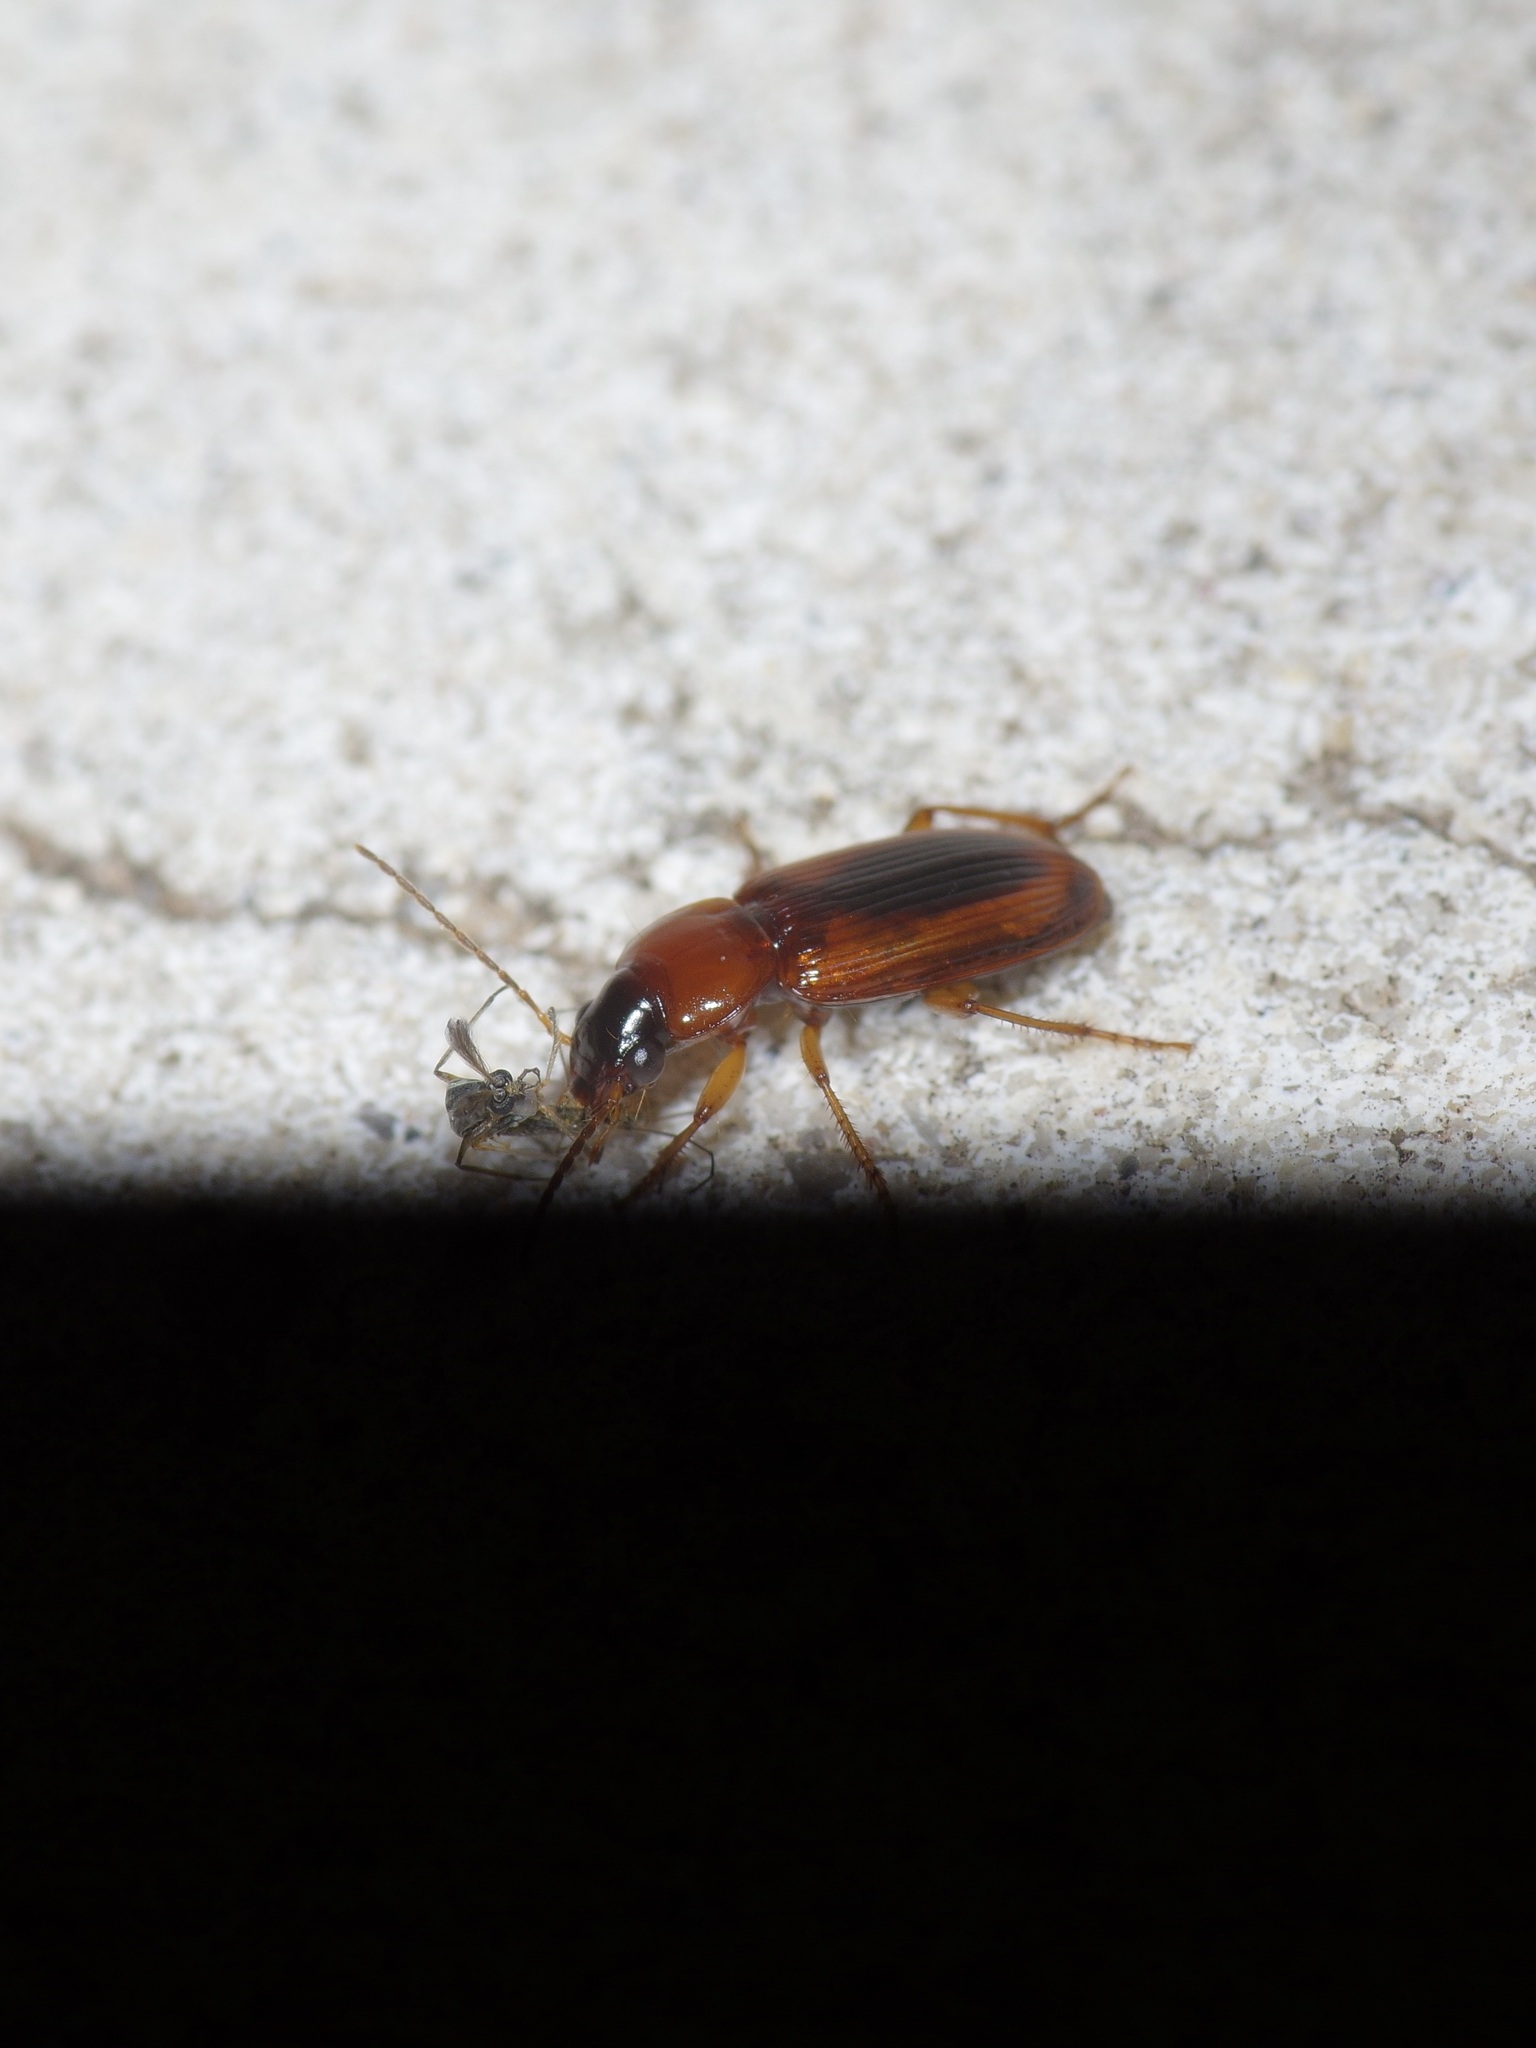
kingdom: Animalia
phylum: Arthropoda
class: Insecta
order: Coleoptera
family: Carabidae
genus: Stenolophus
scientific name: Stenolophus dissimilis
